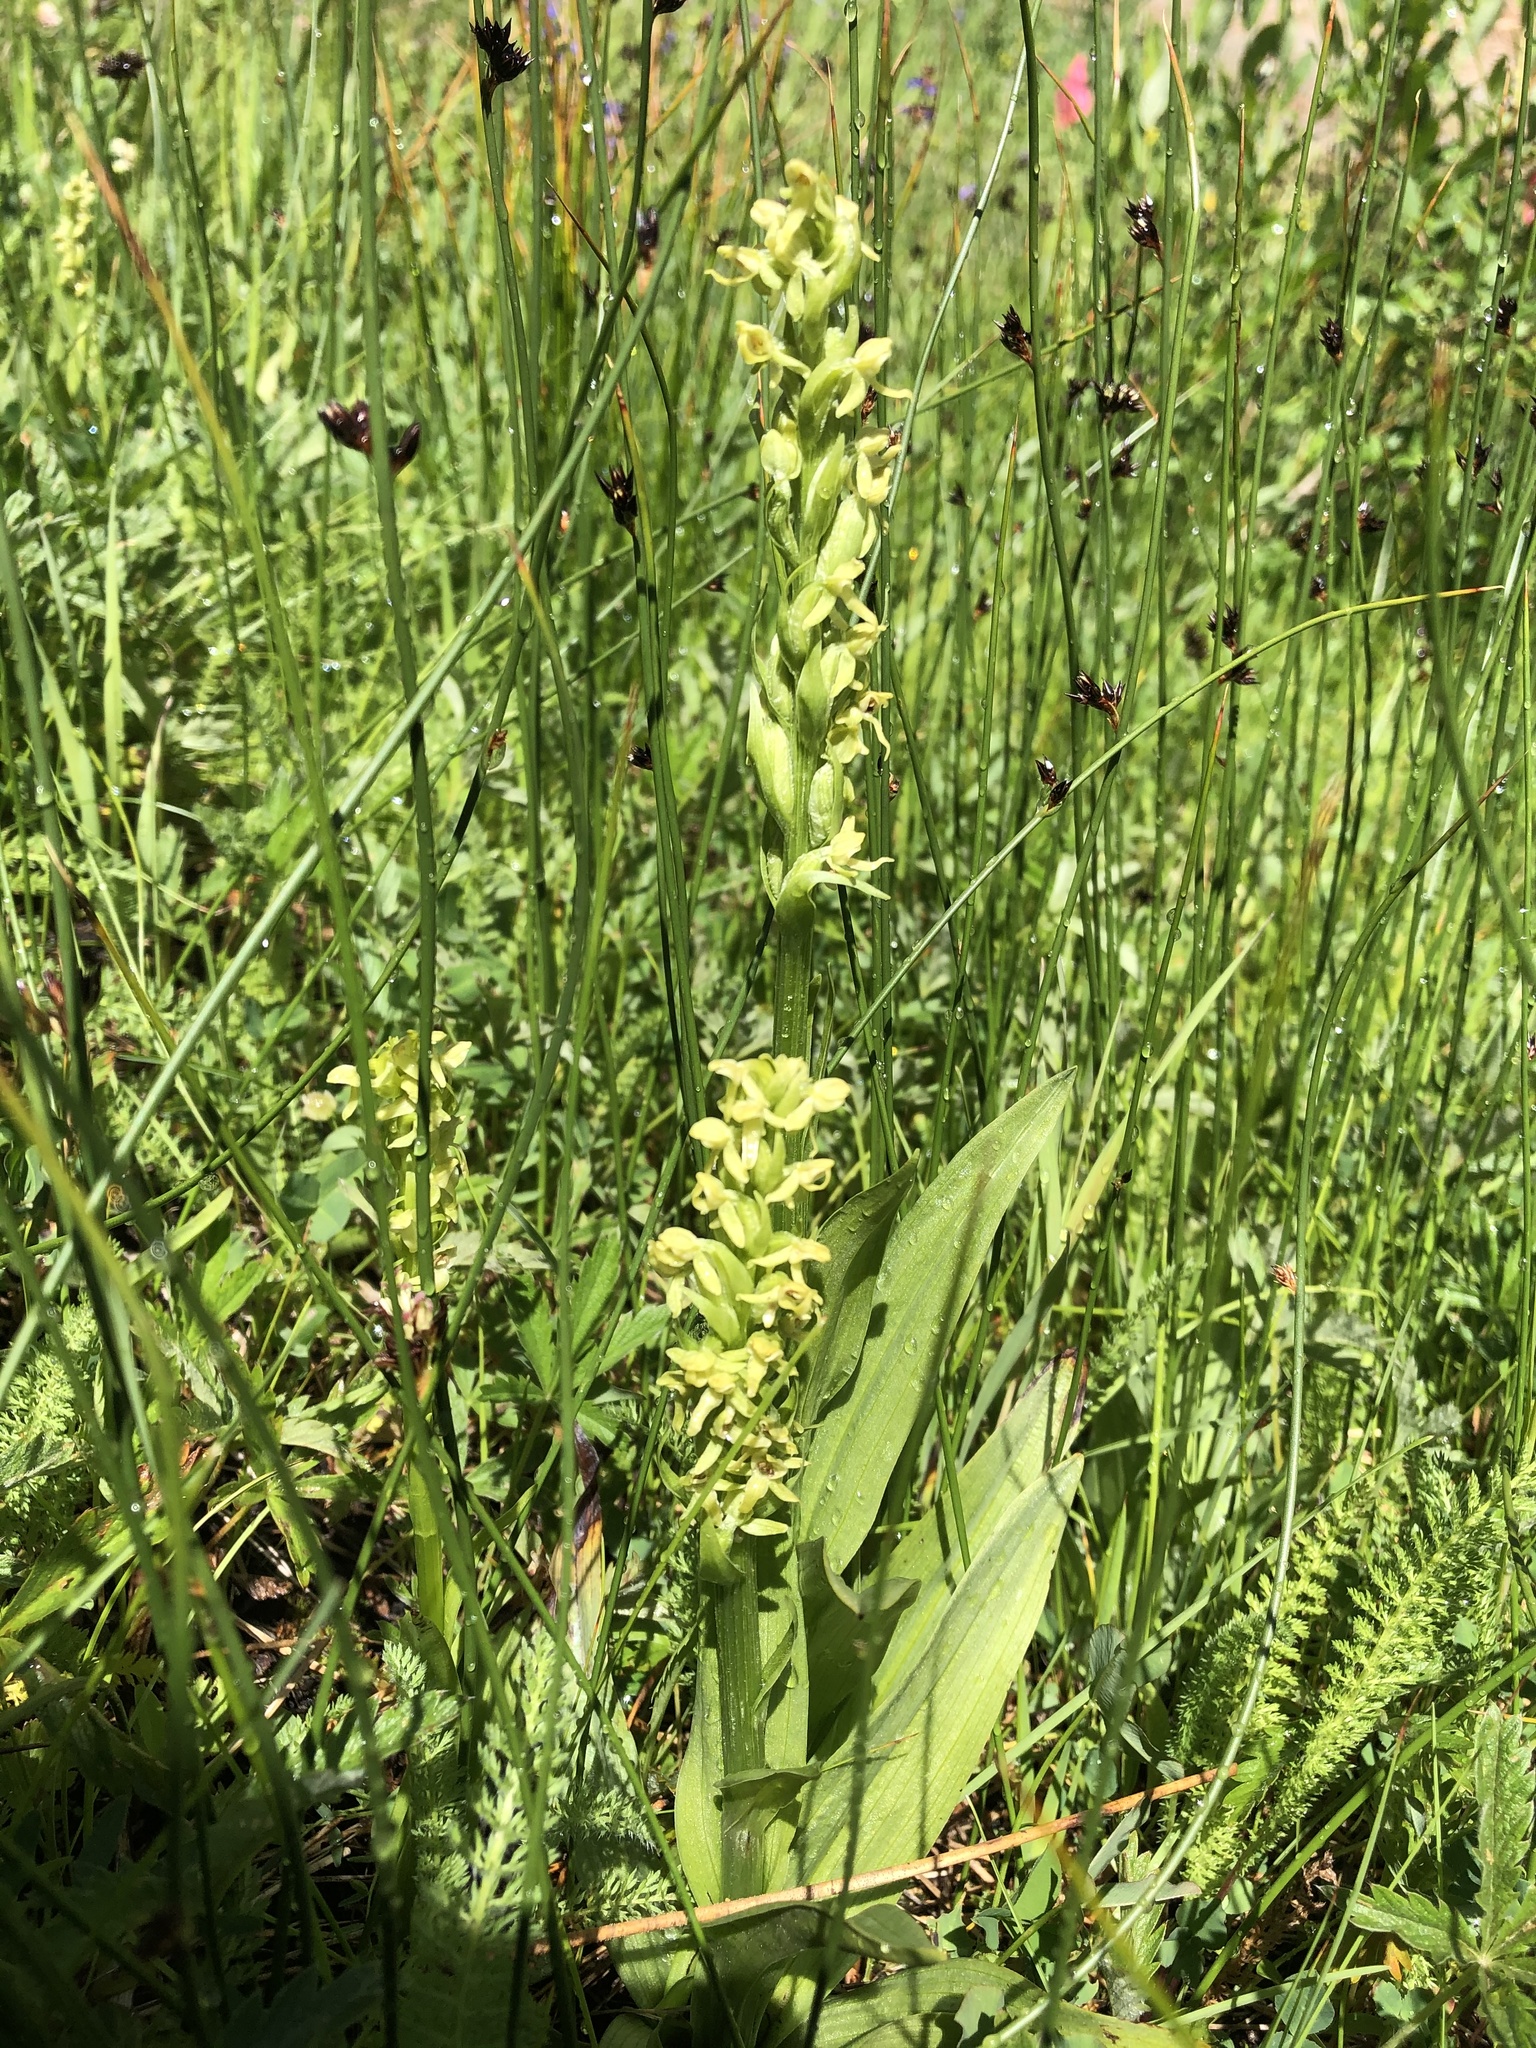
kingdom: Plantae
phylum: Tracheophyta
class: Liliopsida
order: Asparagales
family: Orchidaceae
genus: Platanthera
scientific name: Platanthera huronensis
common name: Fragrant green orchid
